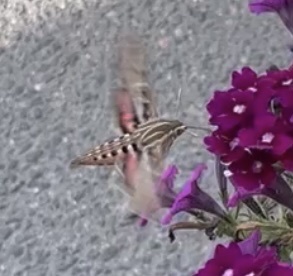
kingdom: Animalia
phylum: Arthropoda
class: Insecta
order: Lepidoptera
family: Sphingidae
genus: Hyles
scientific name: Hyles lineata
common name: White-lined sphinx
